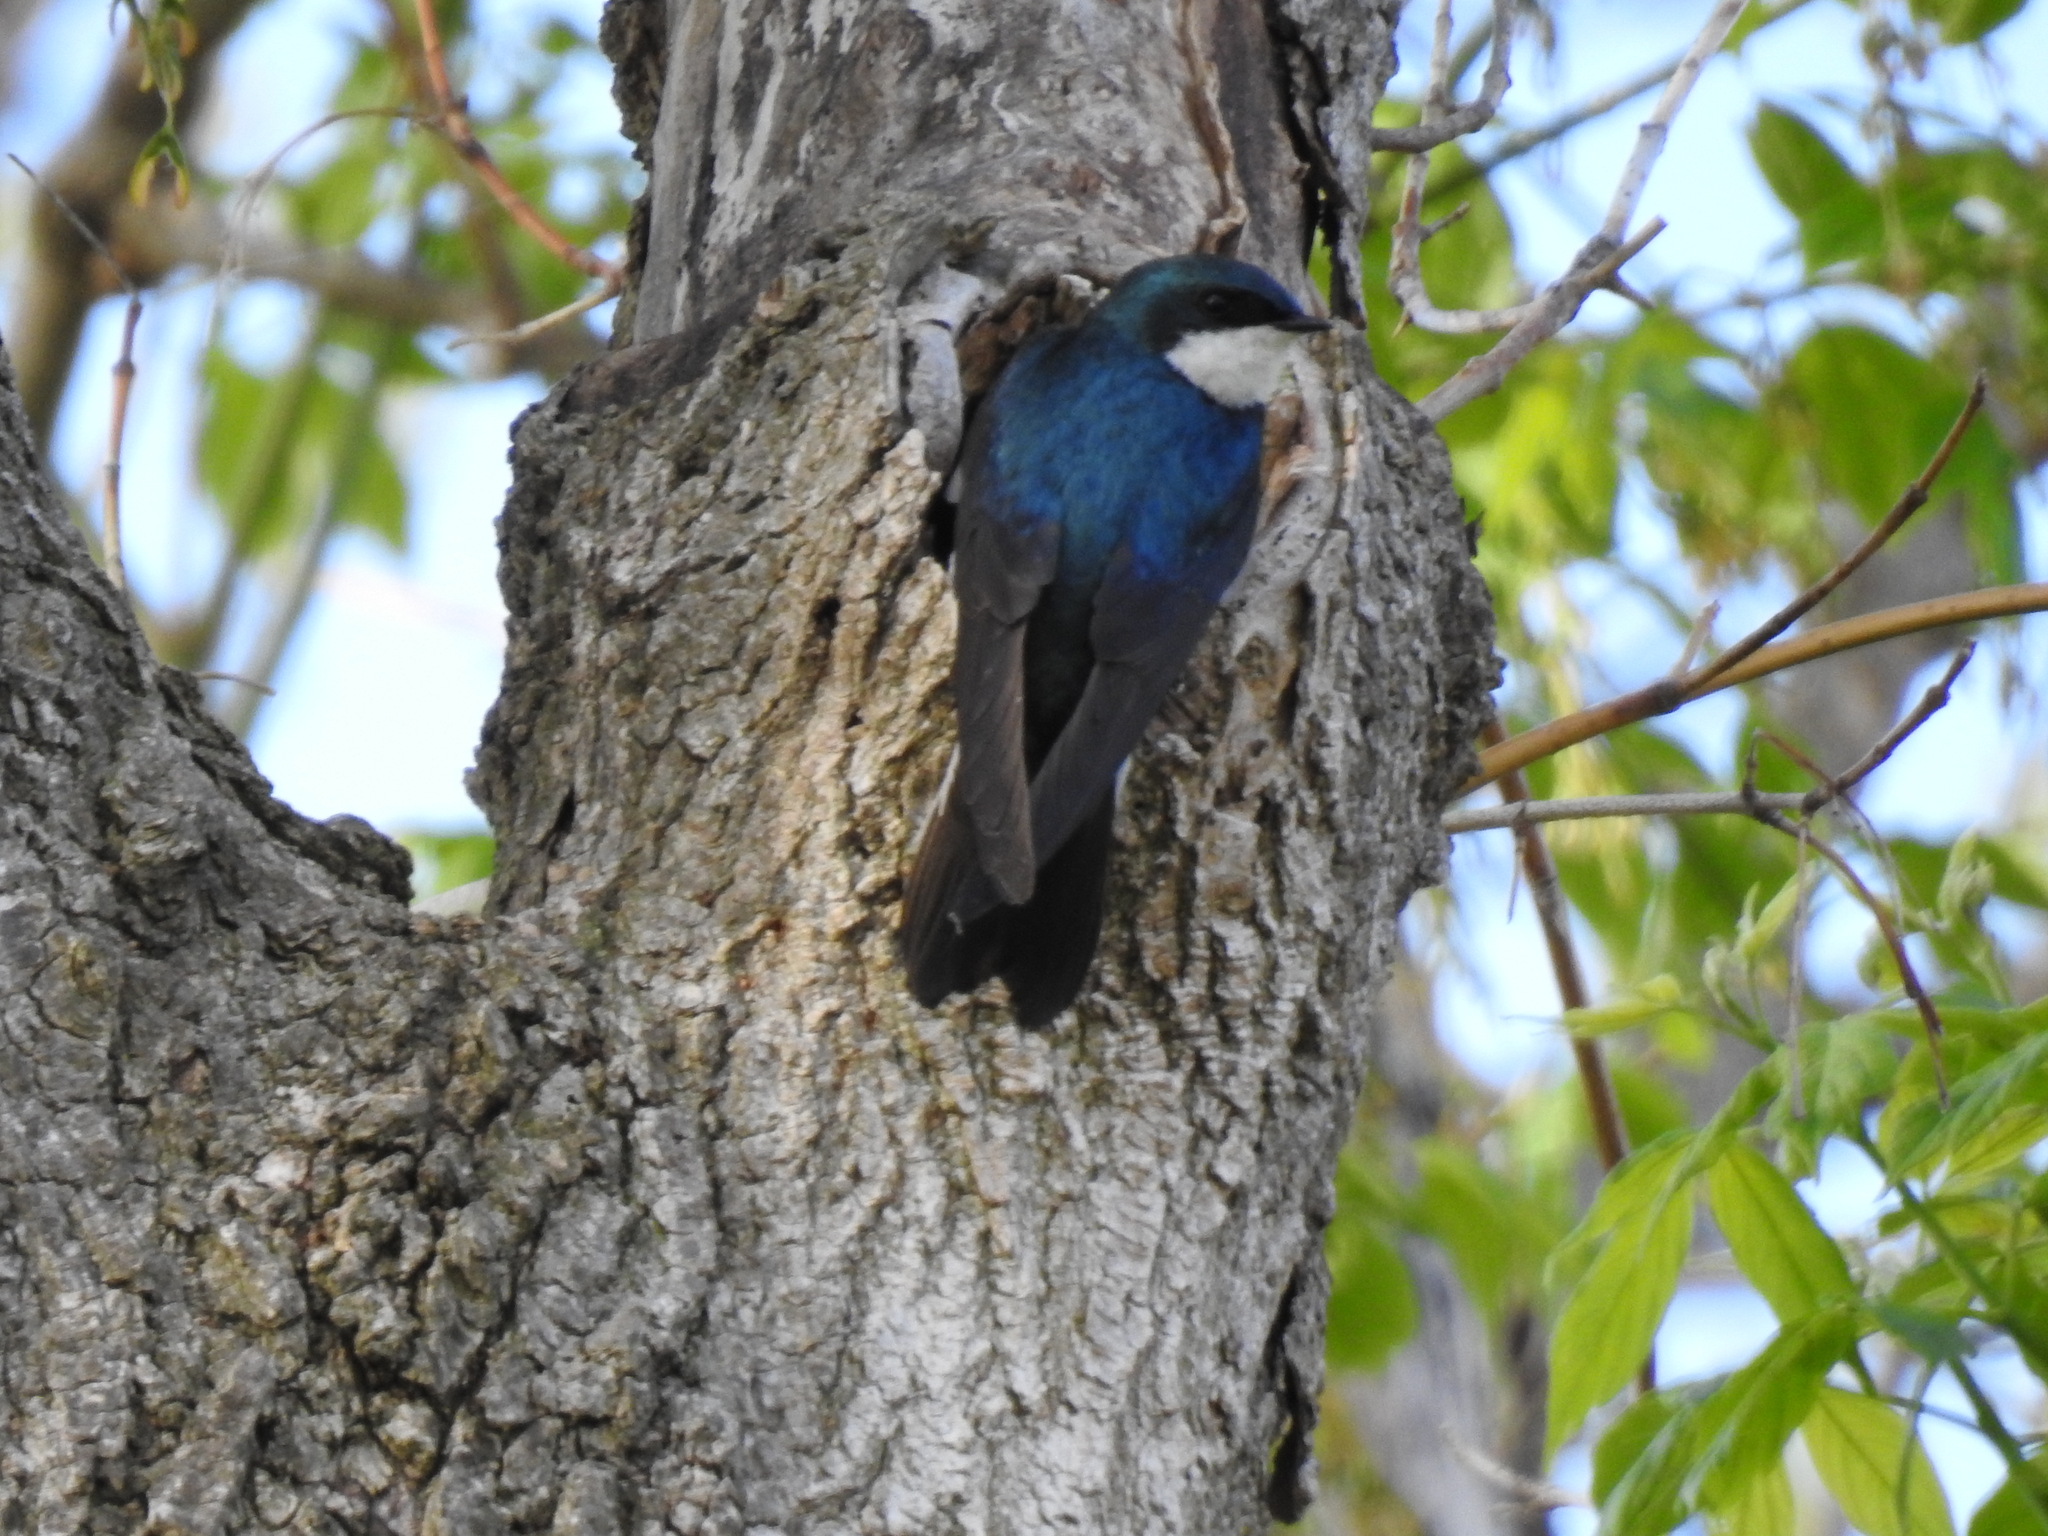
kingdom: Animalia
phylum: Chordata
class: Aves
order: Passeriformes
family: Hirundinidae
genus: Tachycineta
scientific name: Tachycineta bicolor
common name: Tree swallow
